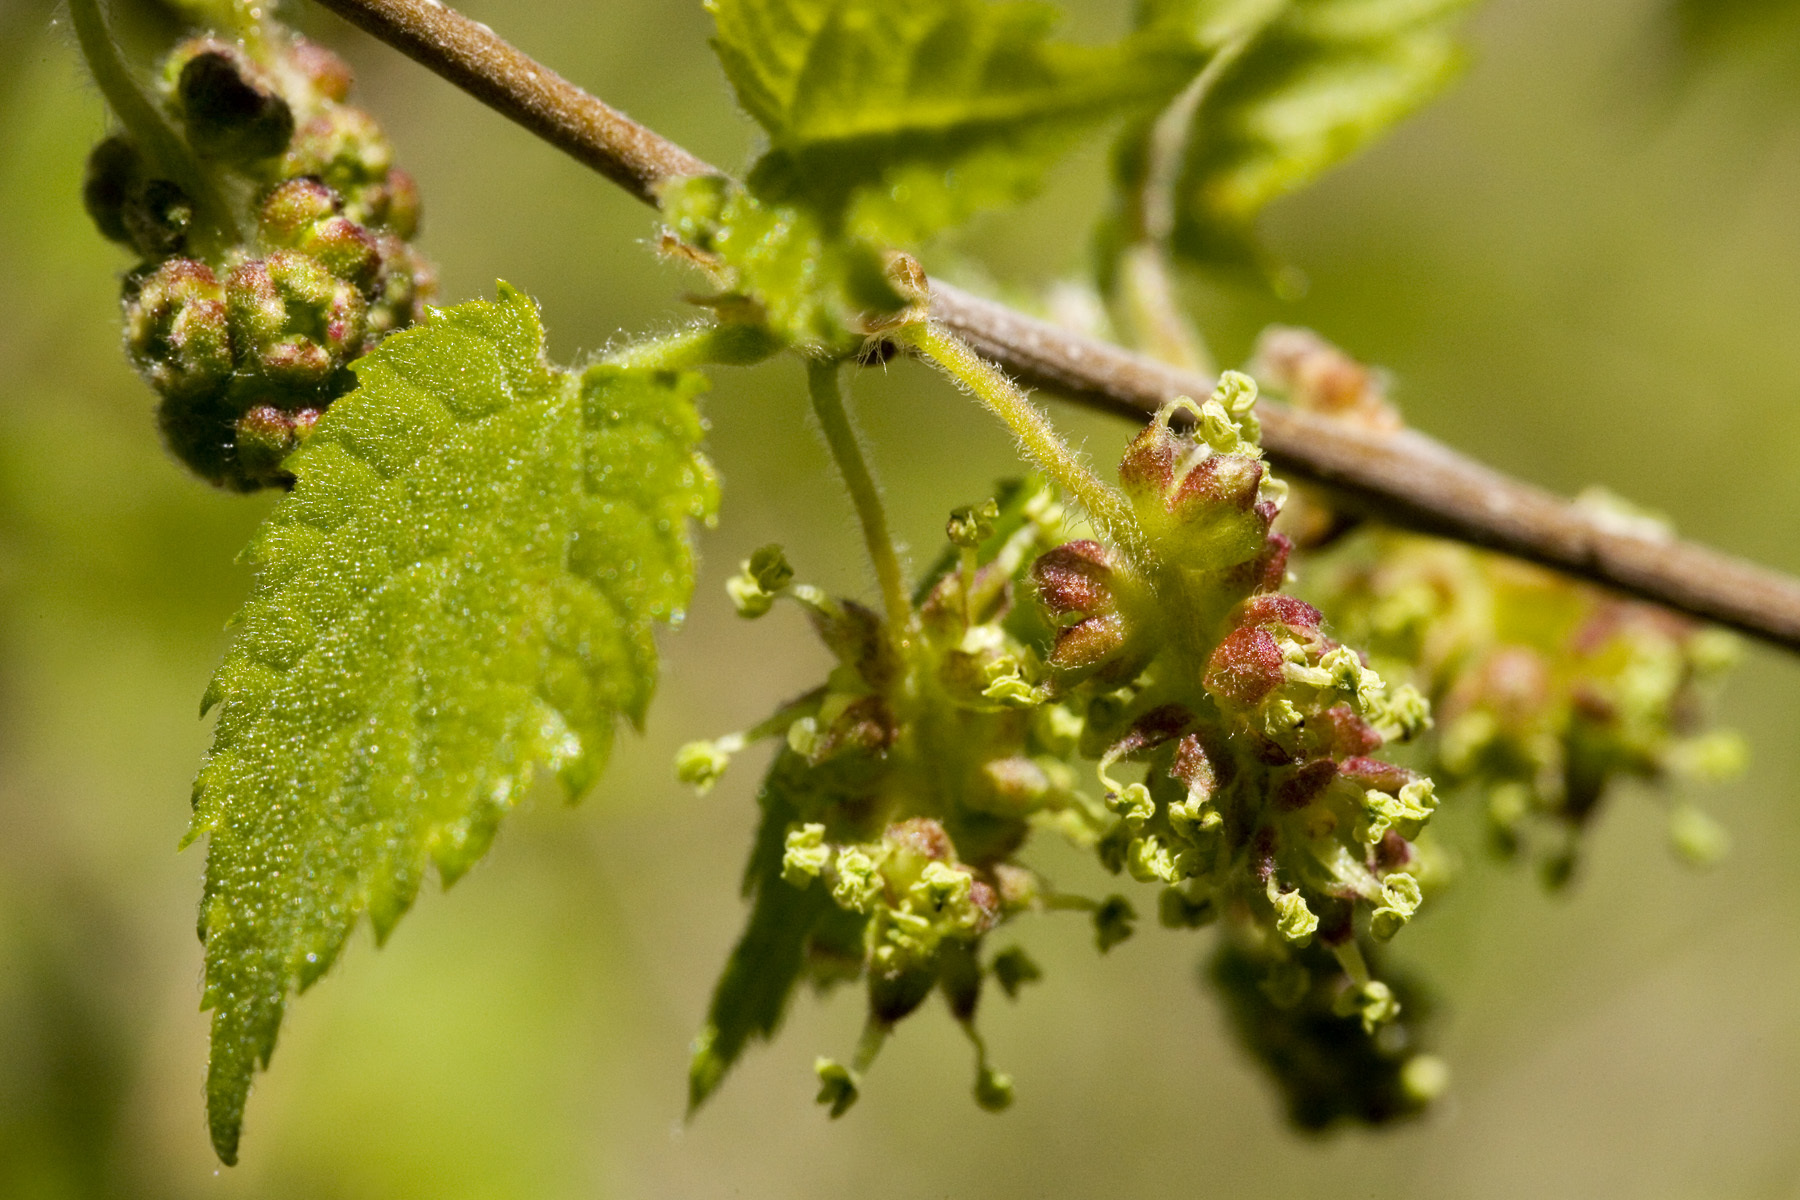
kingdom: Plantae
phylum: Tracheophyta
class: Magnoliopsida
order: Rosales
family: Moraceae
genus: Morus
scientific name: Morus microphylla
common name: Mexican mulberry
